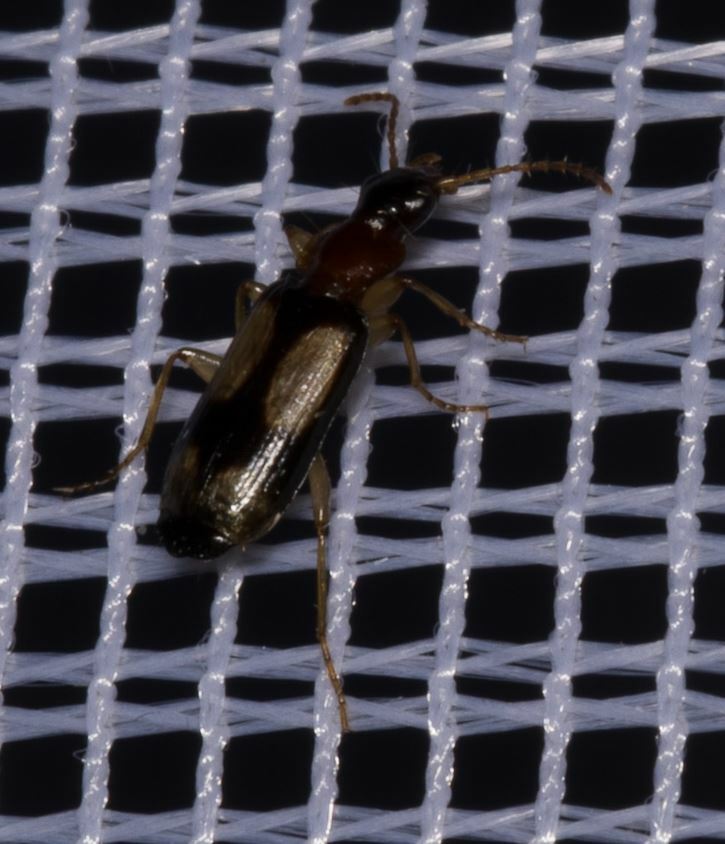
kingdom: Animalia
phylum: Arthropoda
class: Insecta
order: Coleoptera
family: Carabidae
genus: Dromius
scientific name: Dromius quadrimaculatus
